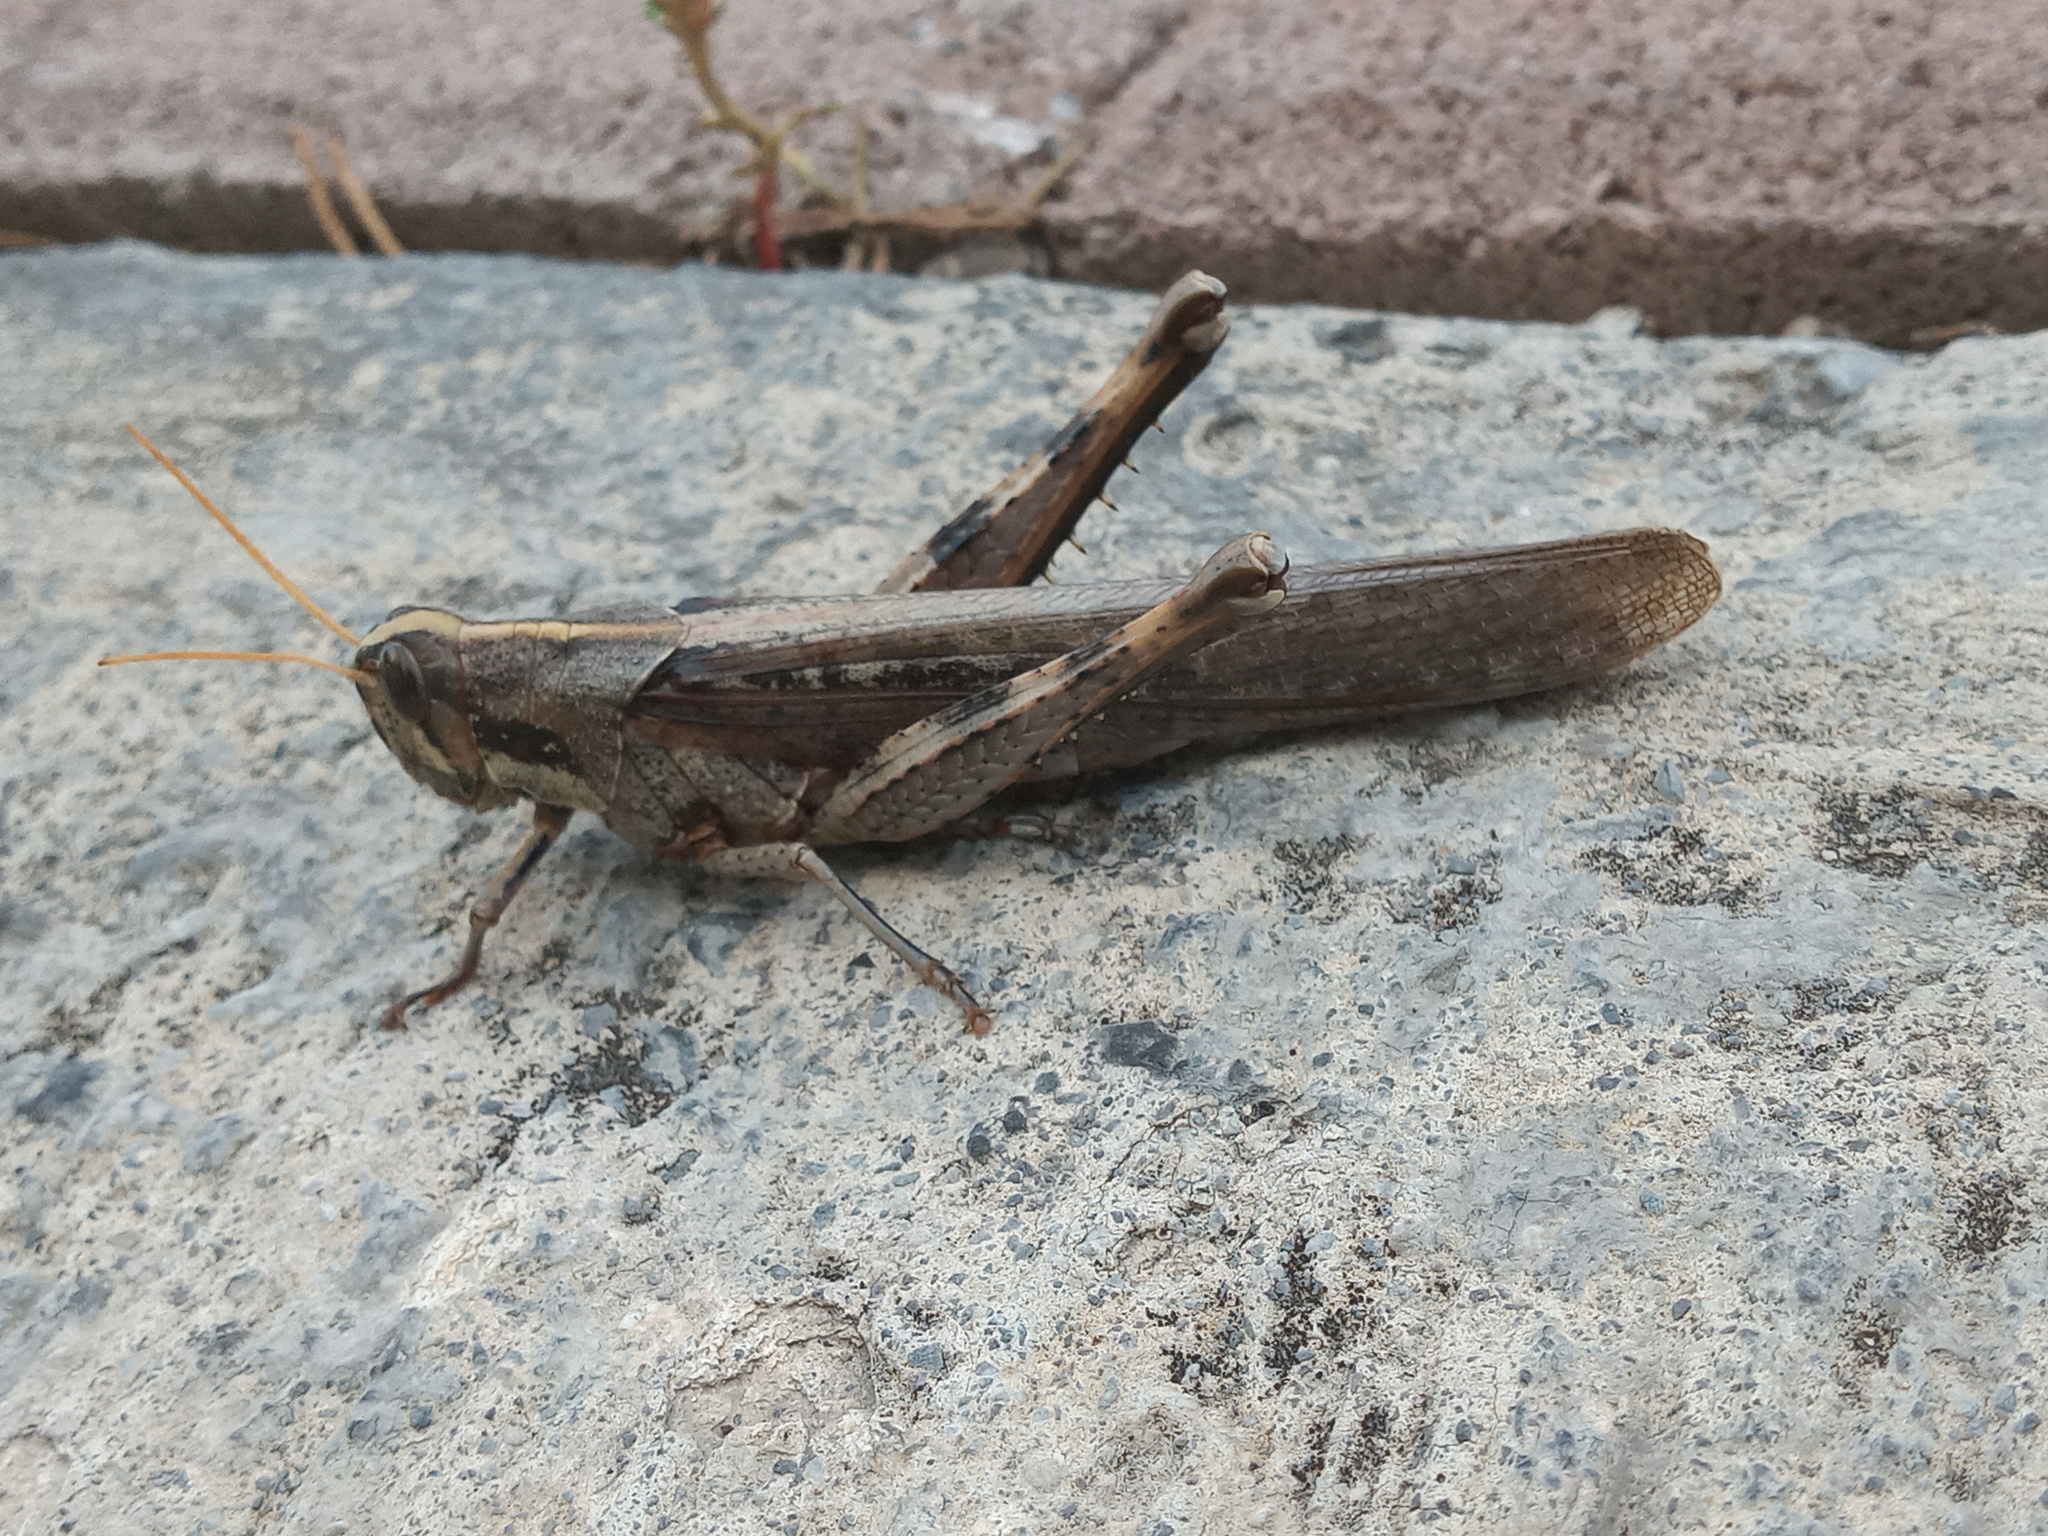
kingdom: Animalia
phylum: Arthropoda
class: Insecta
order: Orthoptera
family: Acrididae
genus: Schistocerca
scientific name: Schistocerca nitens
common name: Vagrant grasshopper
